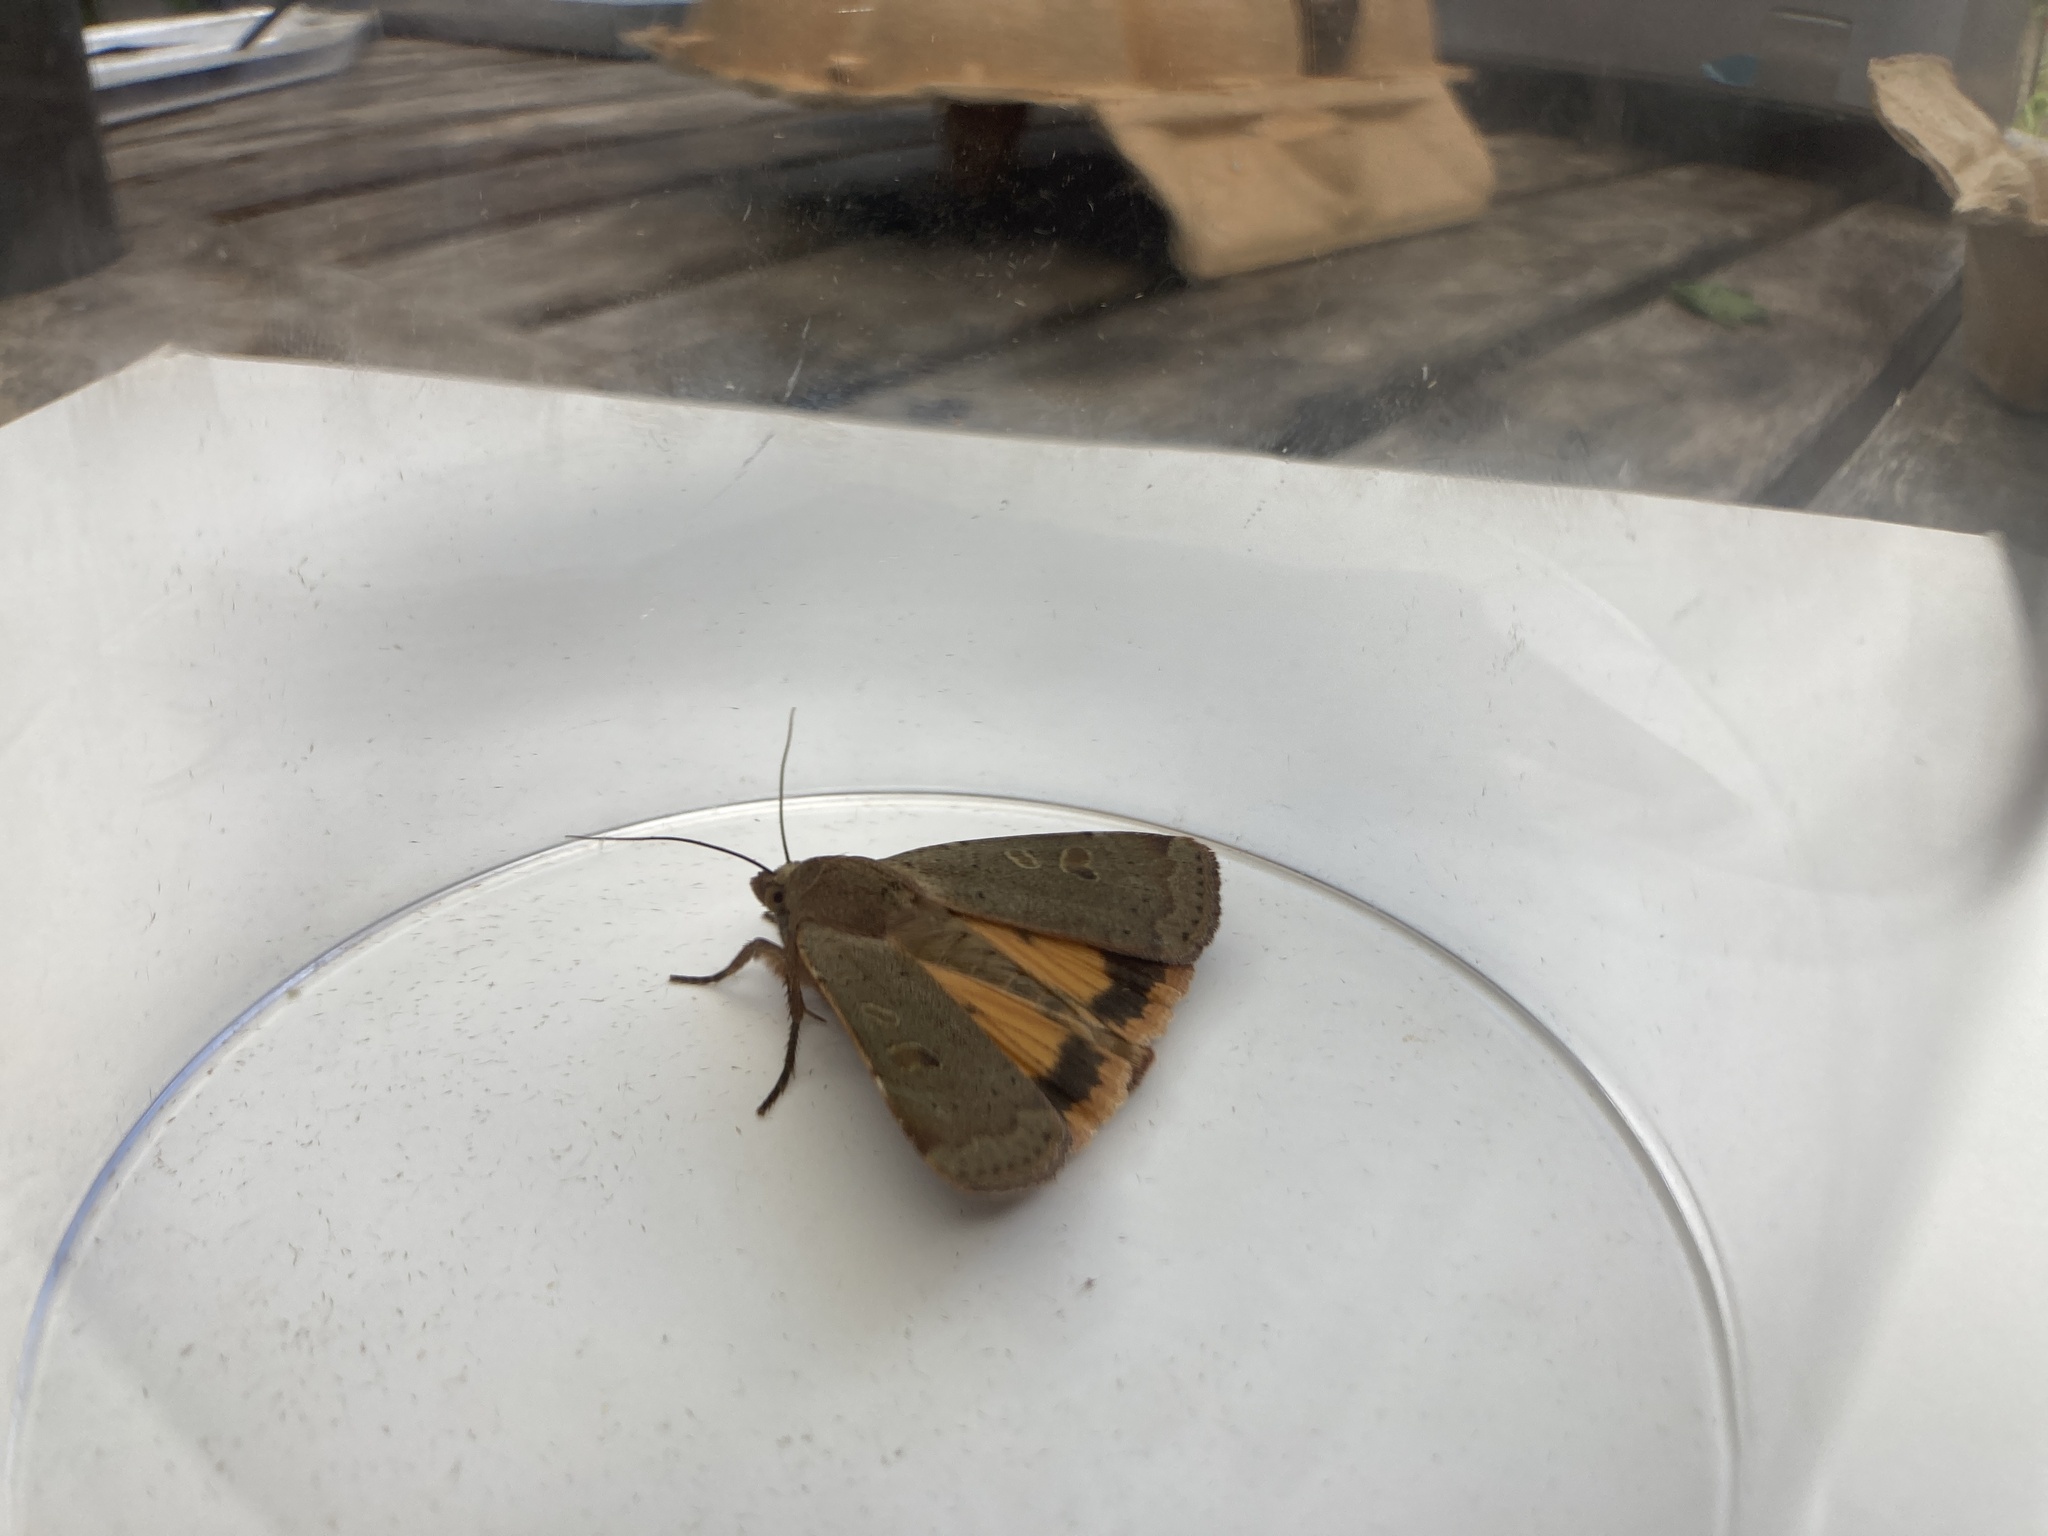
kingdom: Animalia
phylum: Arthropoda
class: Insecta
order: Lepidoptera
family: Noctuidae
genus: Noctua
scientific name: Noctua comes
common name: Lesser yellow underwing
